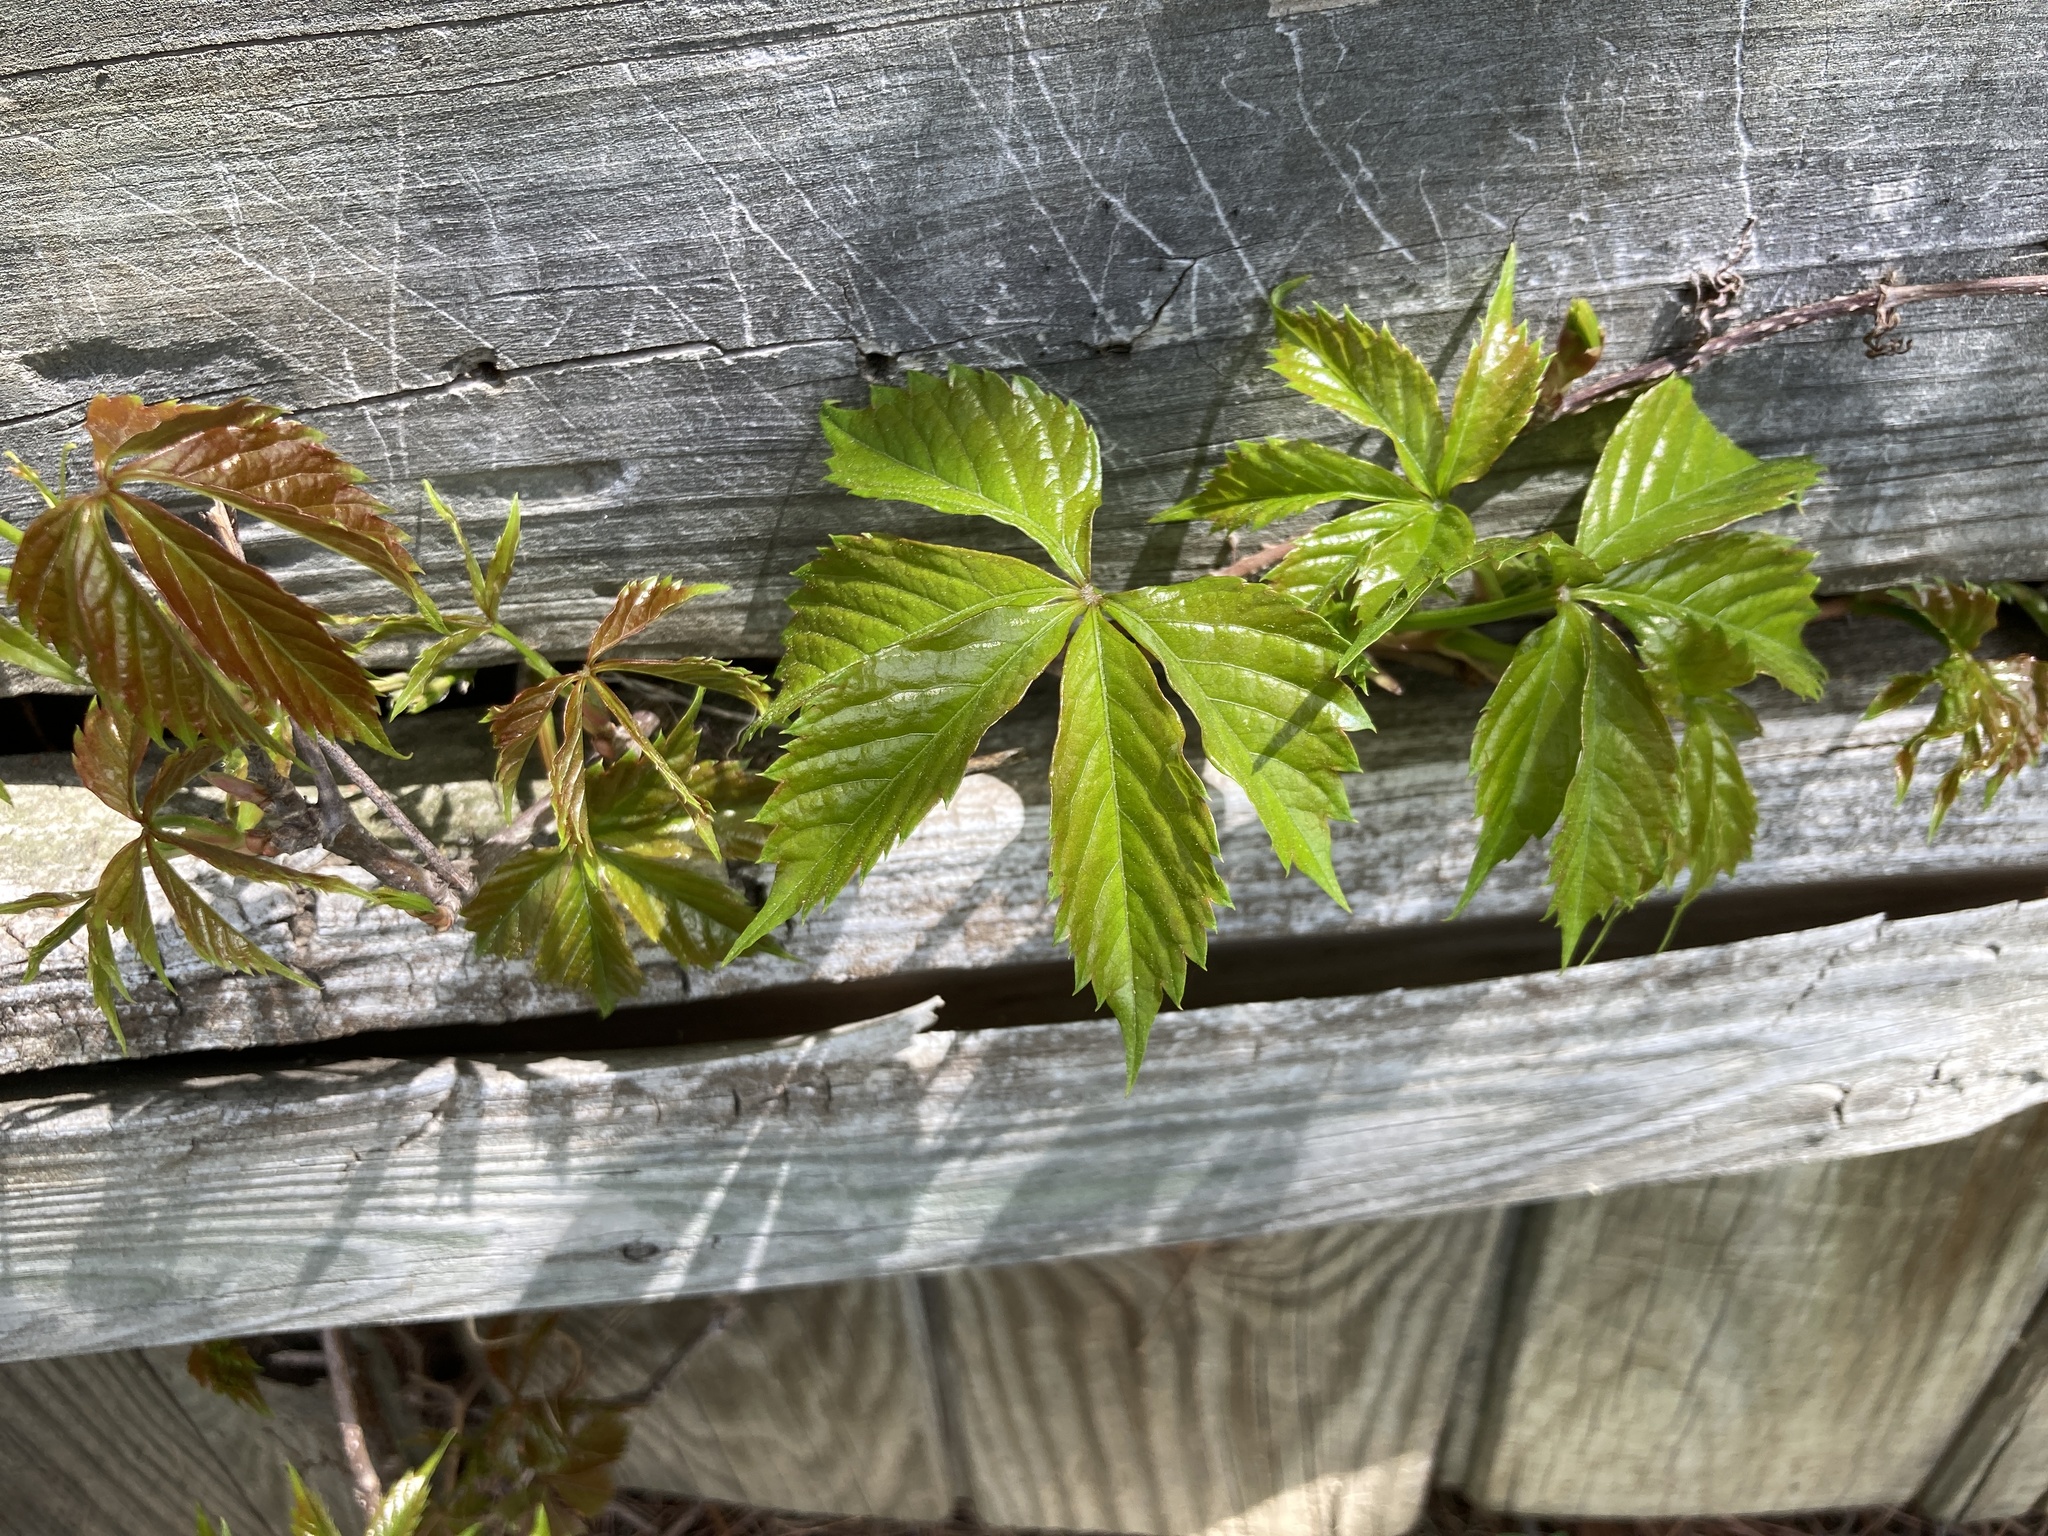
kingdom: Plantae
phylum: Tracheophyta
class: Magnoliopsida
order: Vitales
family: Vitaceae
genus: Parthenocissus
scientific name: Parthenocissus quinquefolia
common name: Virginia-creeper
